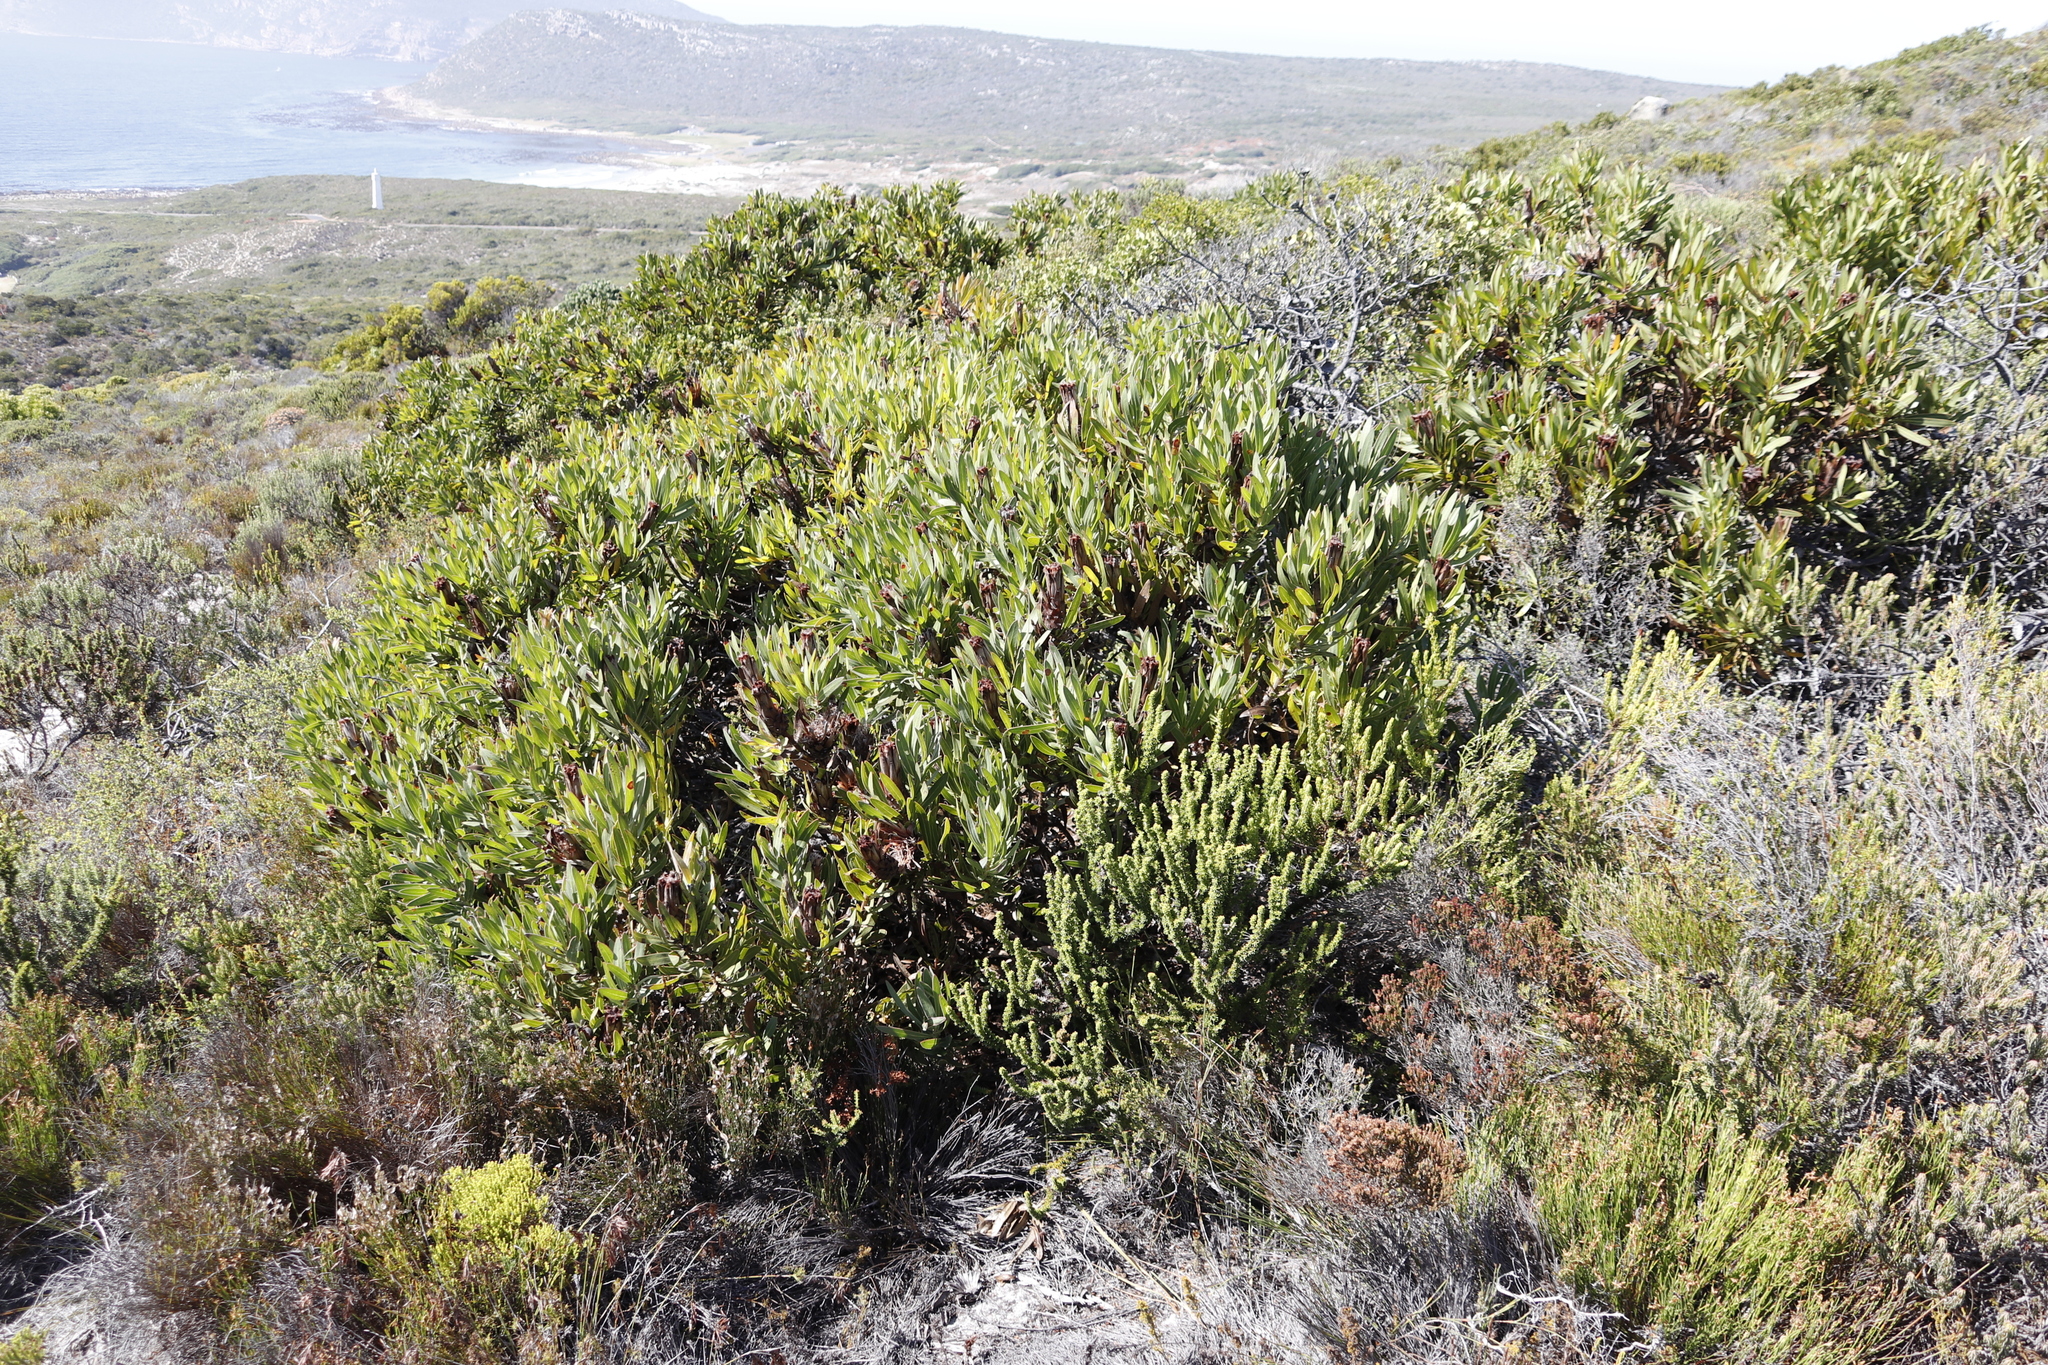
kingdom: Plantae
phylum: Tracheophyta
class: Magnoliopsida
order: Proteales
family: Proteaceae
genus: Protea
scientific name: Protea lepidocarpodendron
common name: Black-bearded protea
